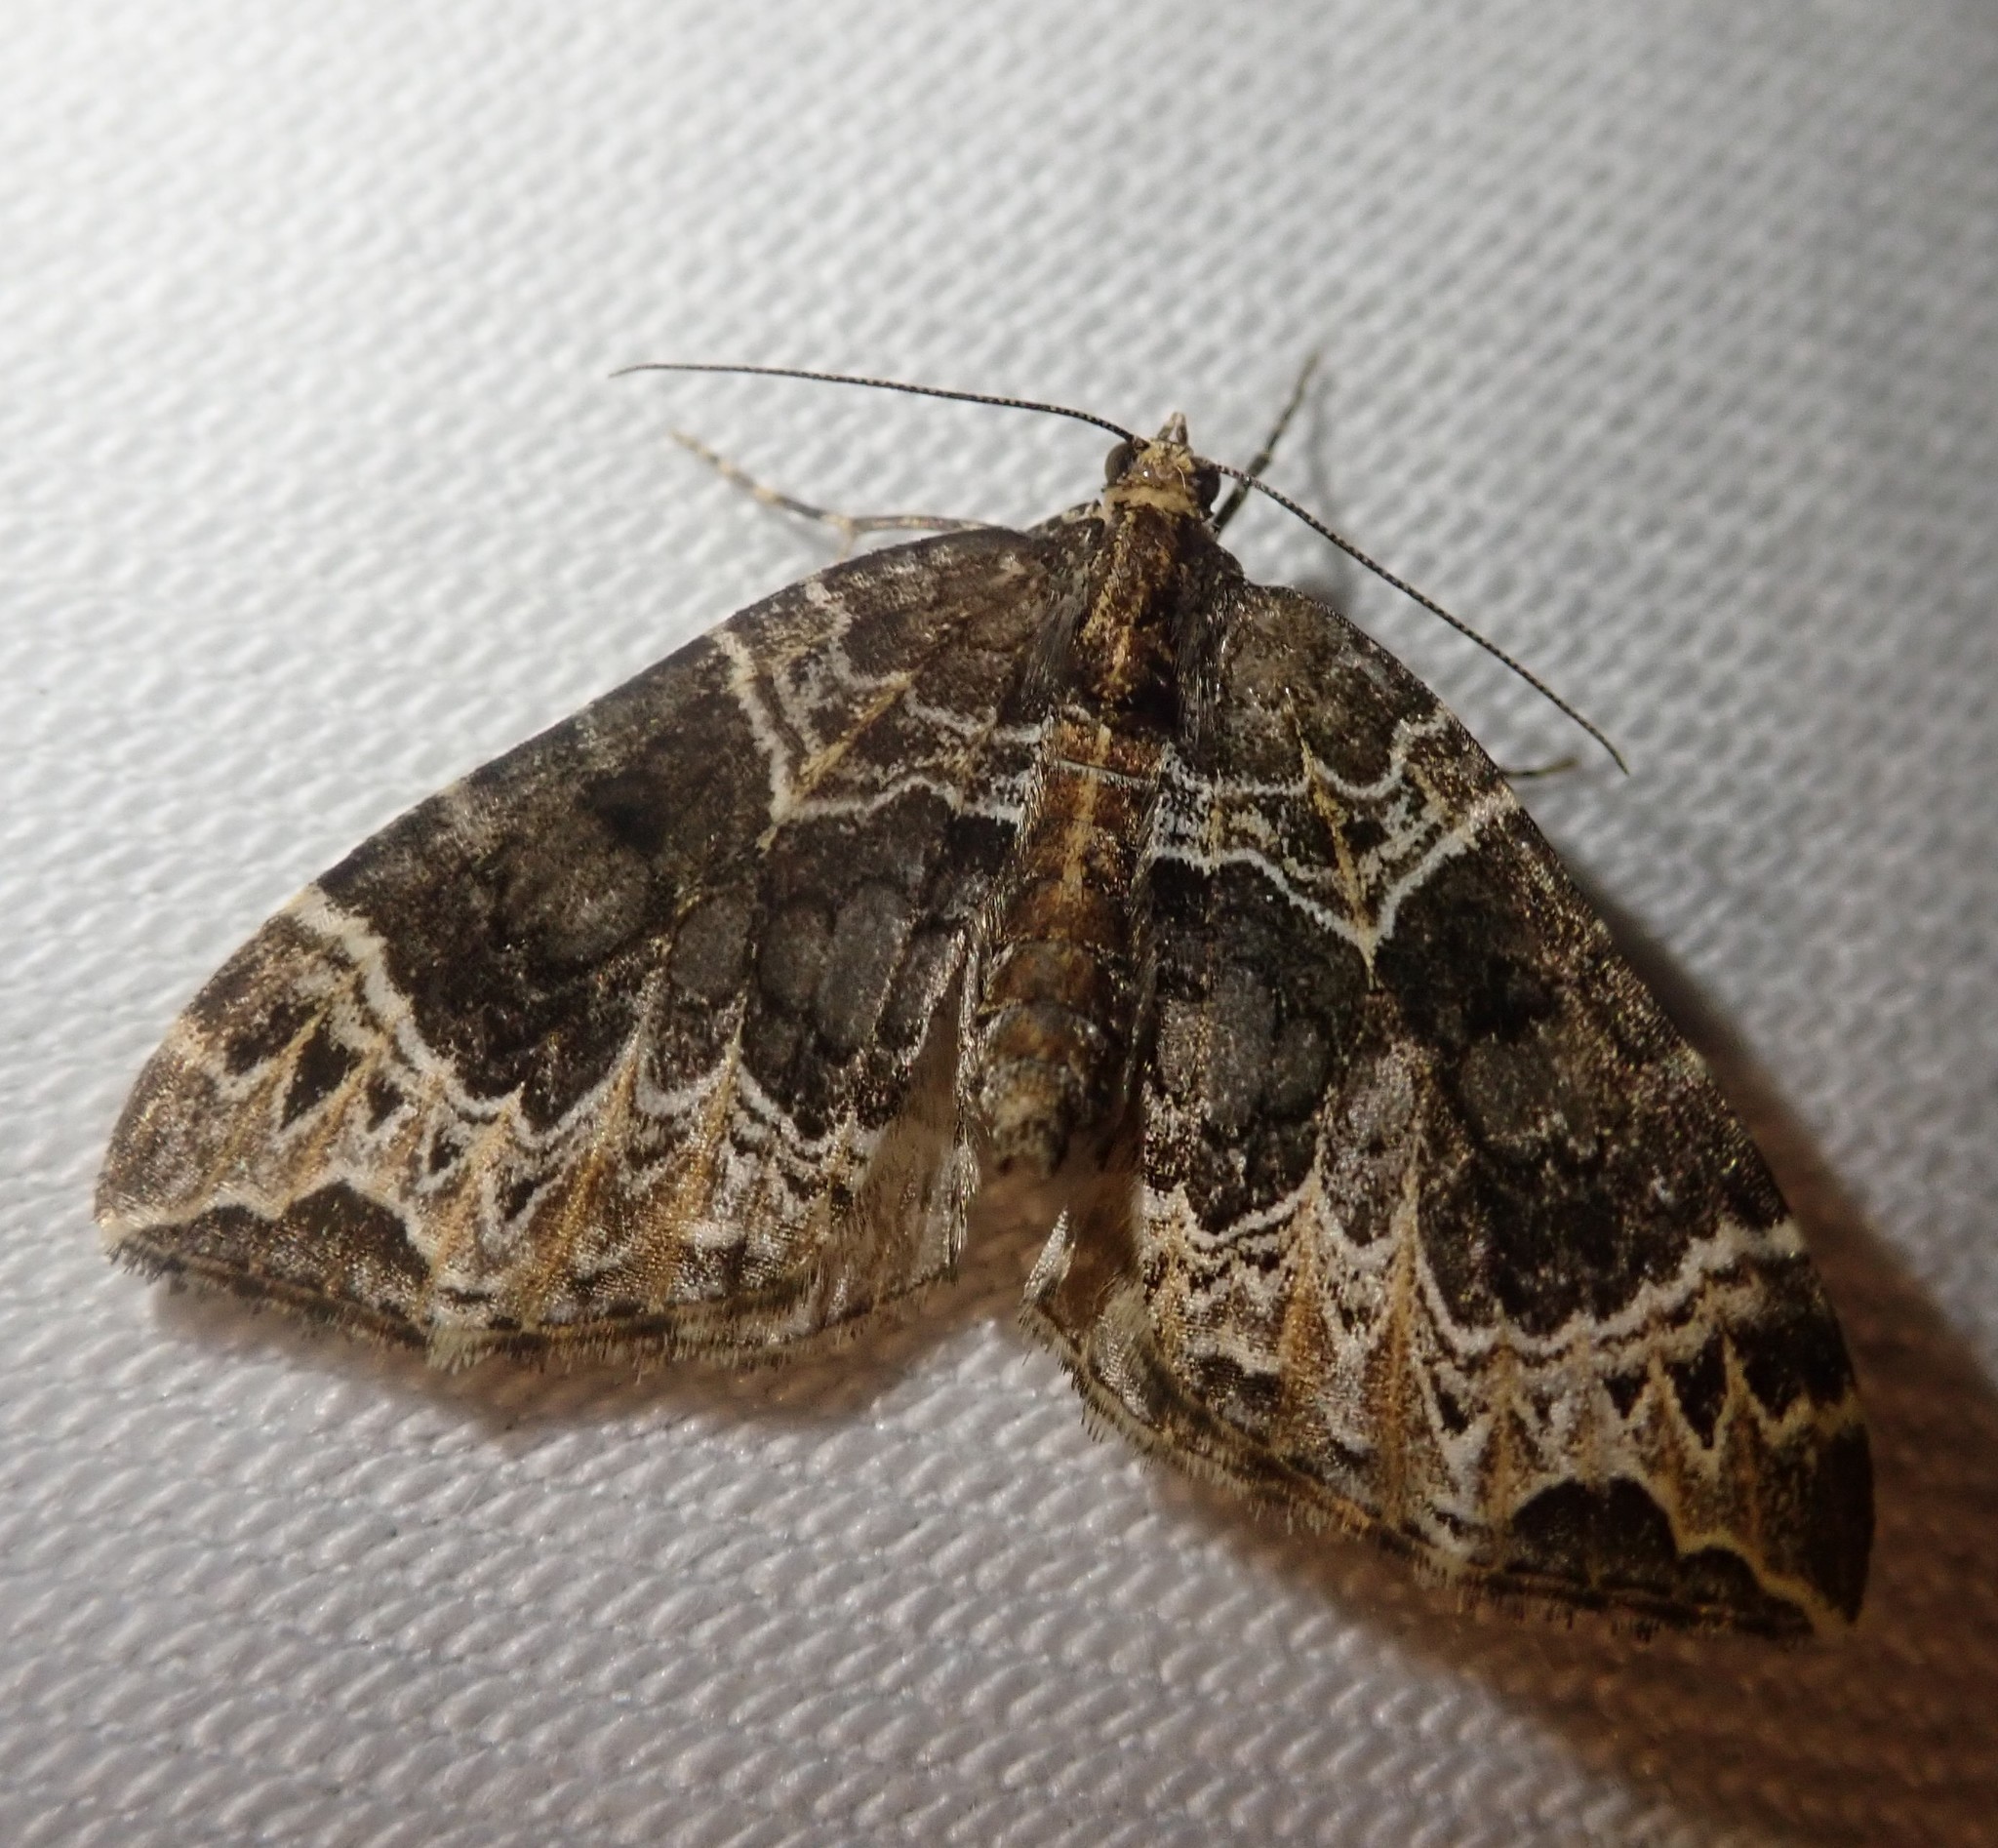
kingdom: Animalia
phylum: Arthropoda
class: Insecta
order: Lepidoptera
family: Geometridae
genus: Ecliptopera
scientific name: Ecliptopera silaceata
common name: Small phoenix
